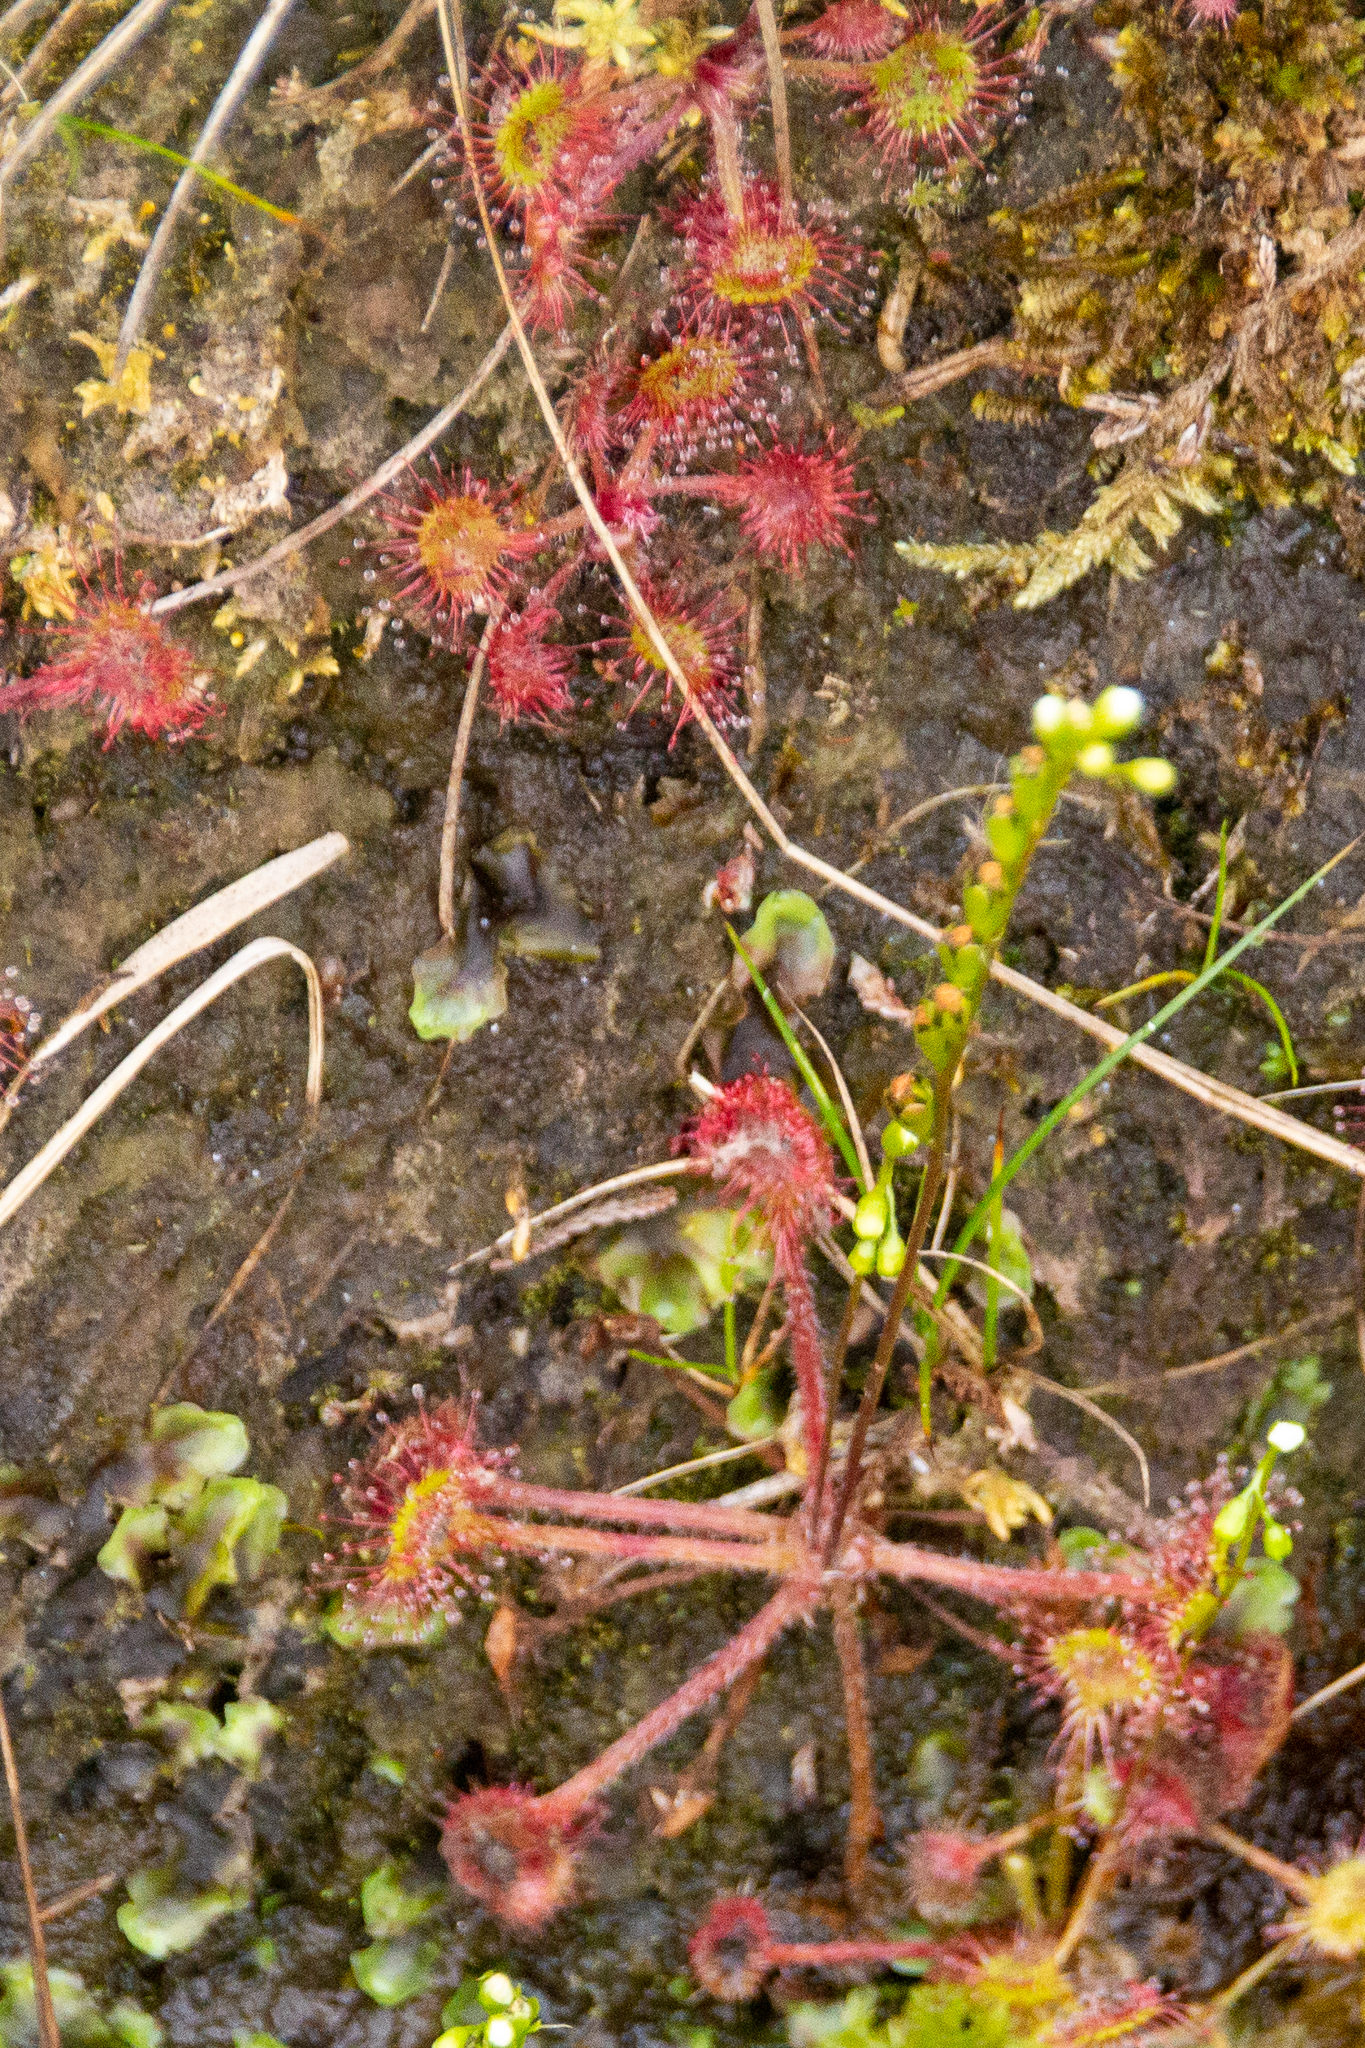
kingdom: Plantae
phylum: Tracheophyta
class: Magnoliopsida
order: Caryophyllales
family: Droseraceae
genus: Drosera
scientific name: Drosera rotundifolia
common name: Round-leaved sundew
